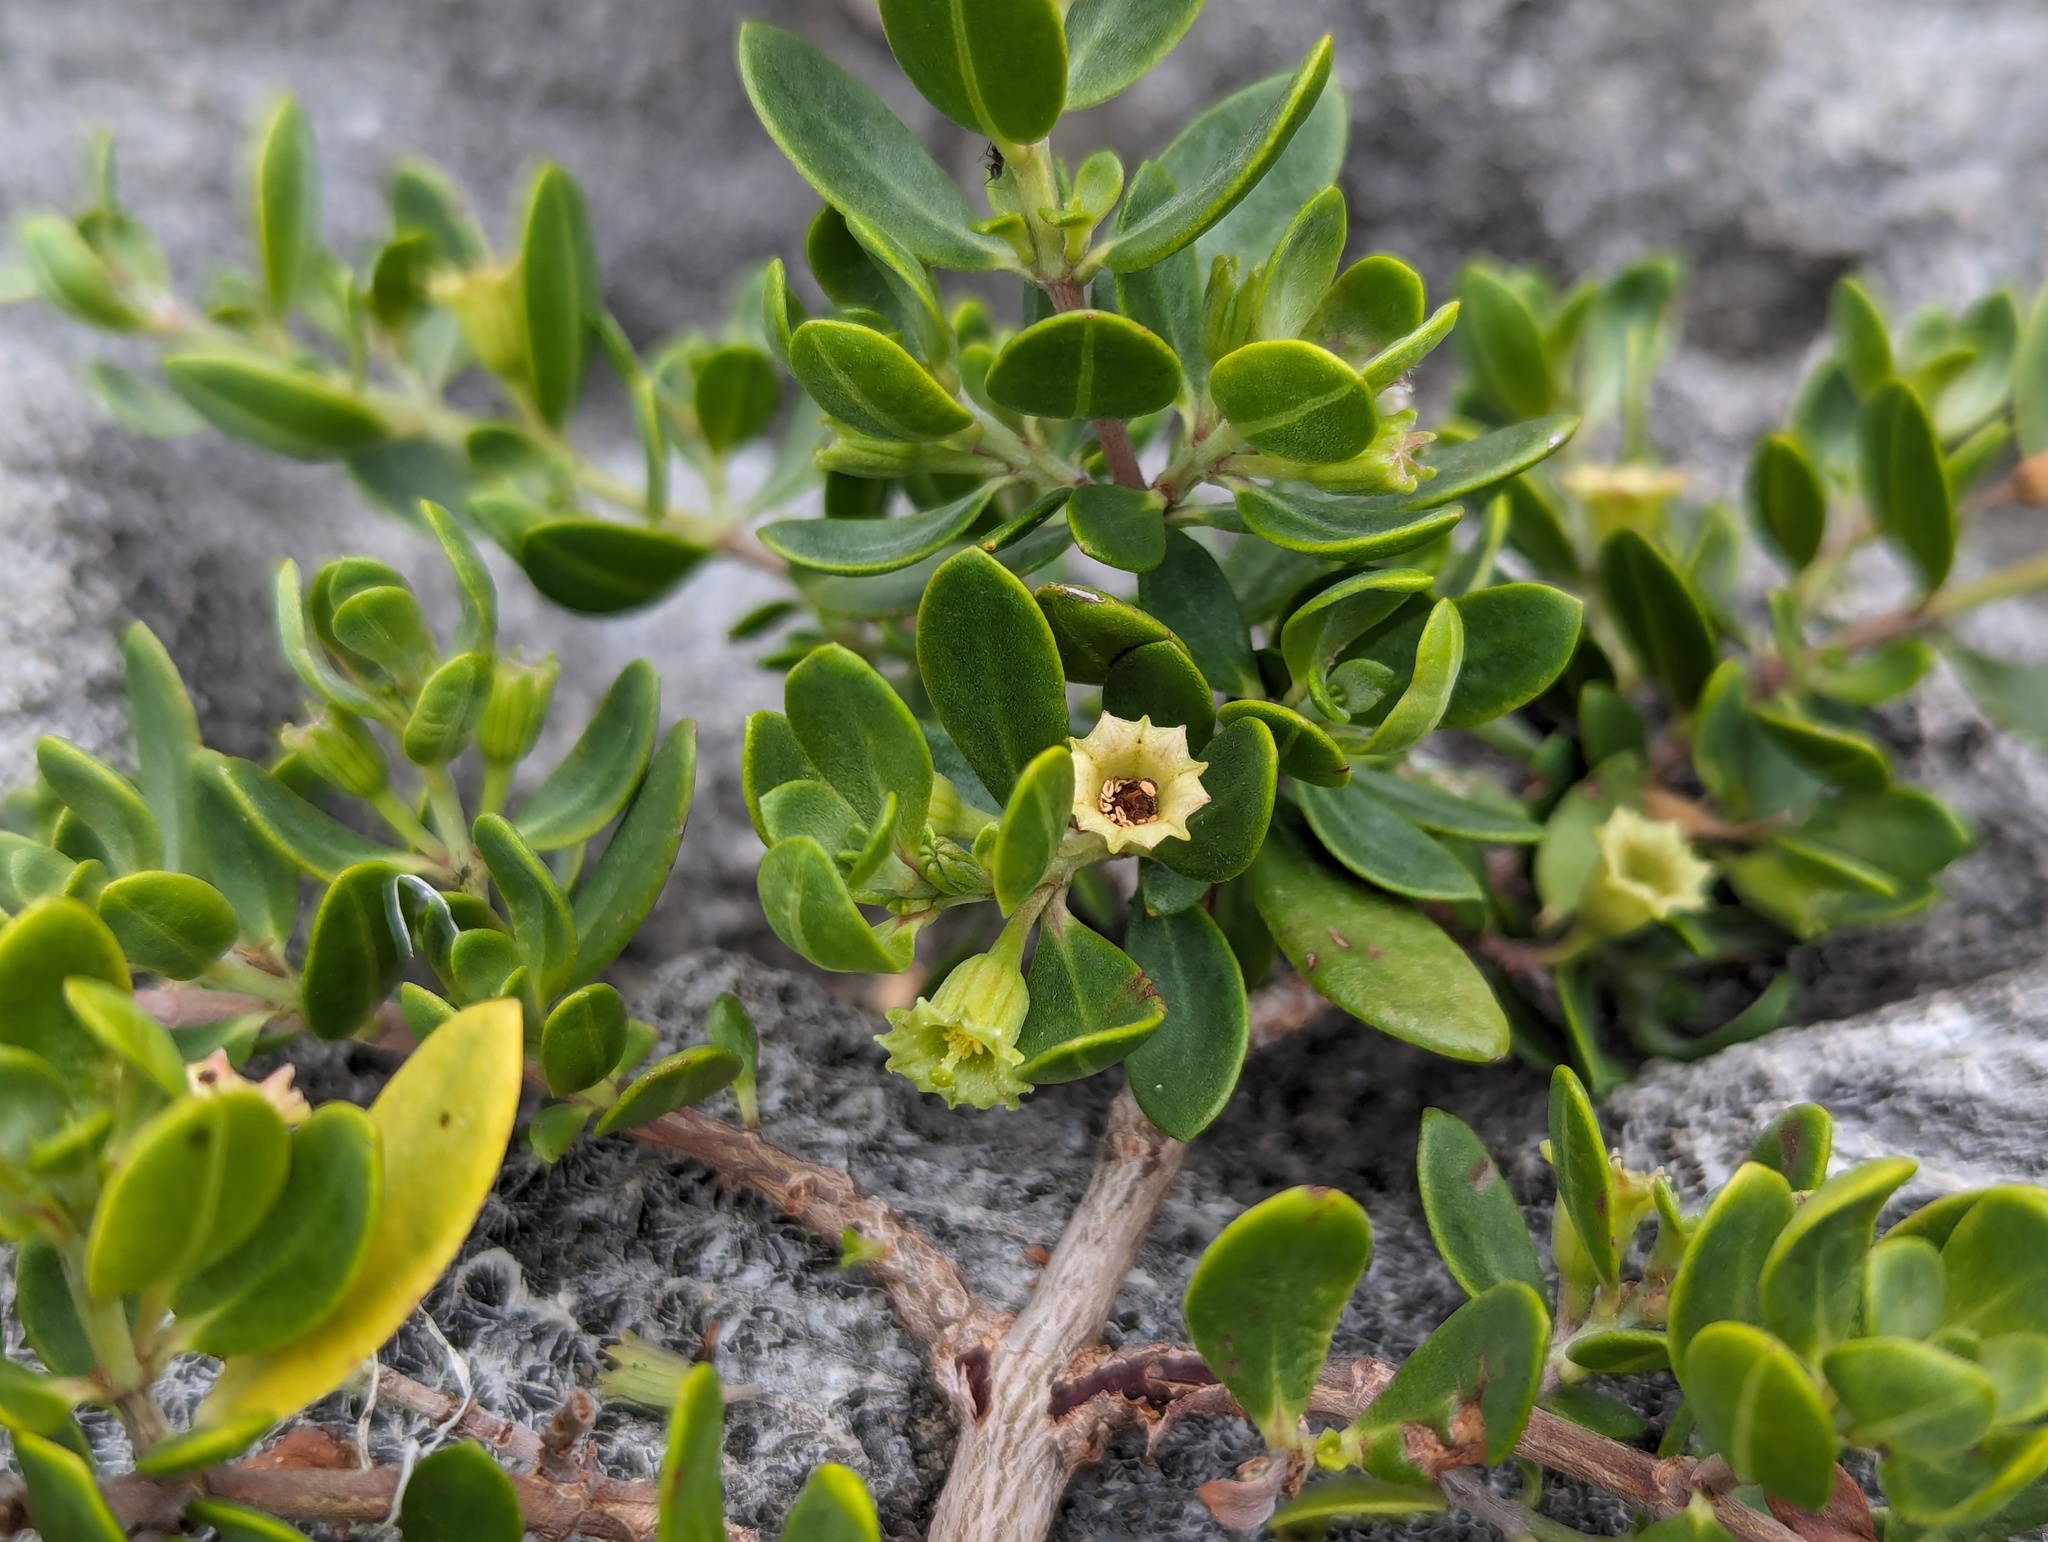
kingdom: Plantae
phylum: Tracheophyta
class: Magnoliopsida
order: Myrtales
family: Lythraceae
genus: Pemphis
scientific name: Pemphis acidula
